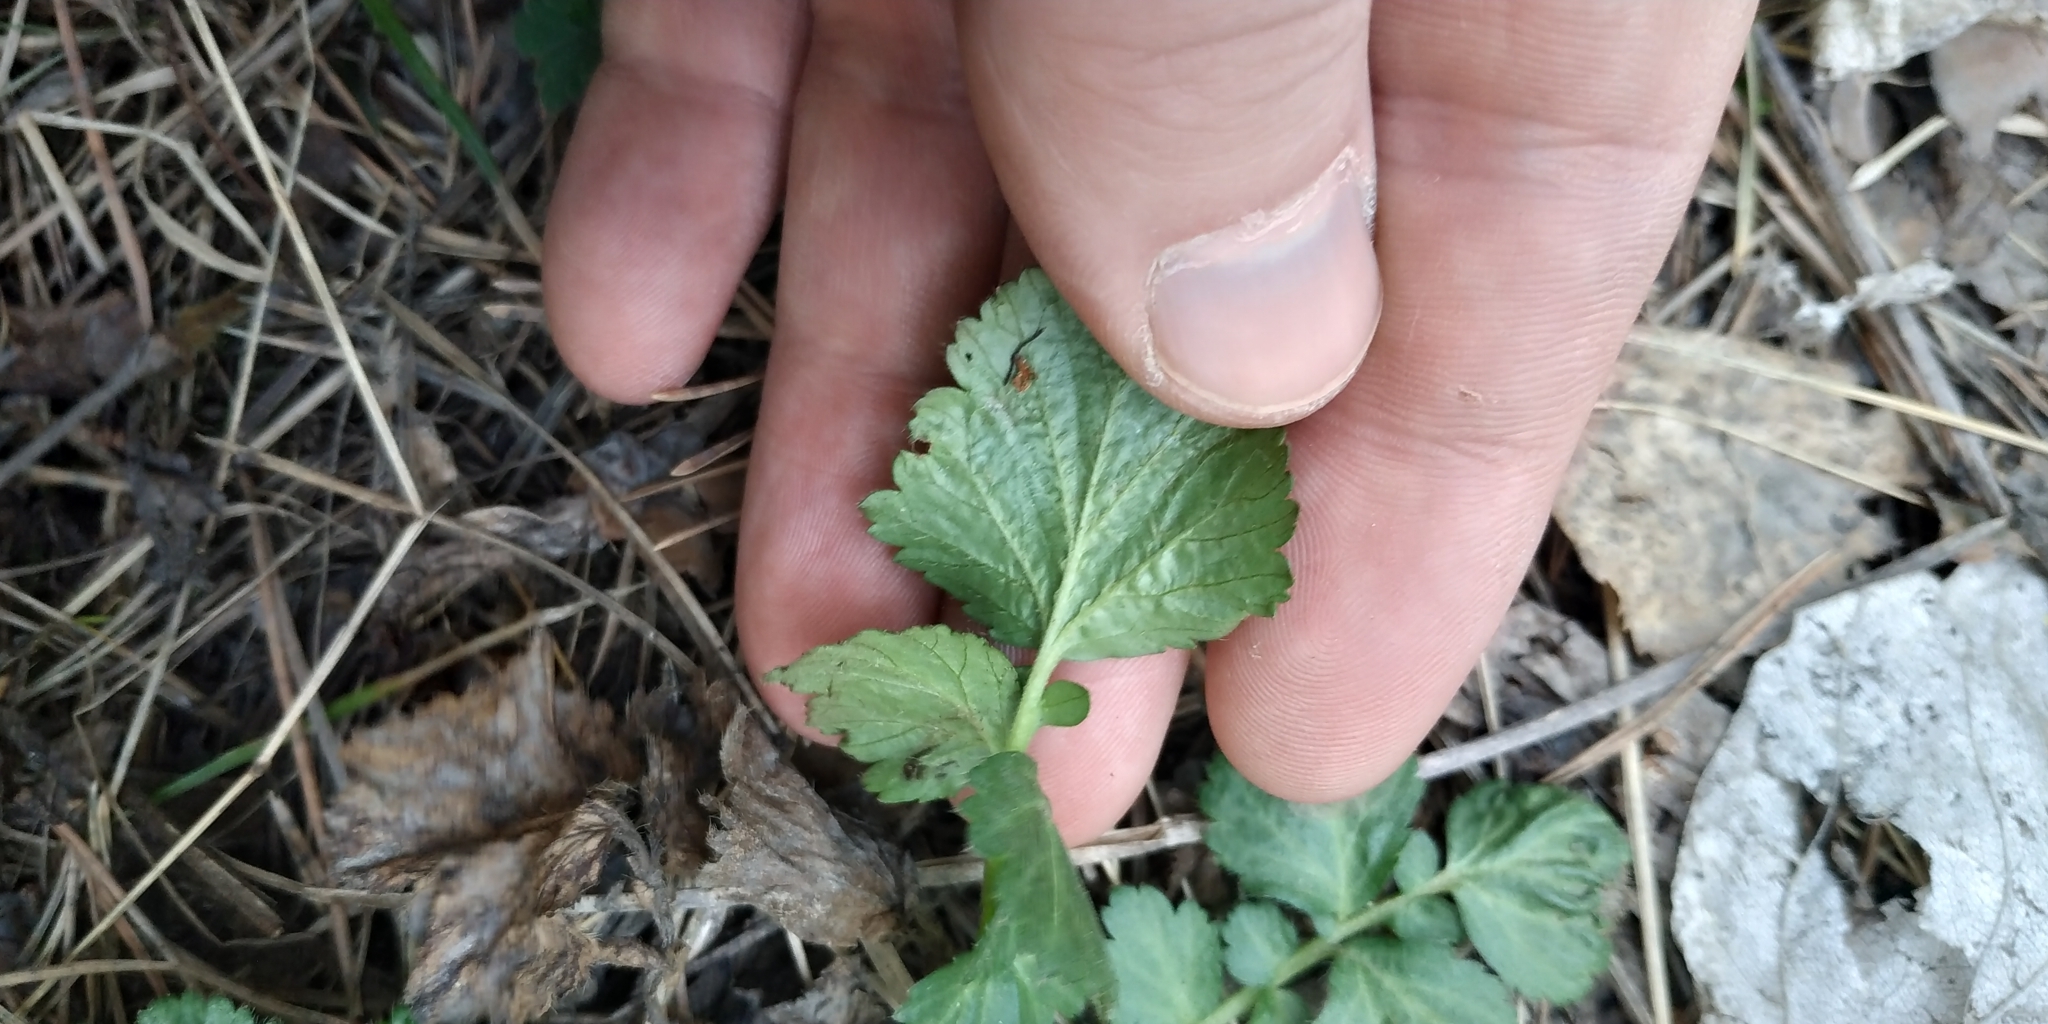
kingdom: Plantae
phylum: Tracheophyta
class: Magnoliopsida
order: Rosales
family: Rosaceae
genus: Geum
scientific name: Geum aleppicum
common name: Yellow avens
